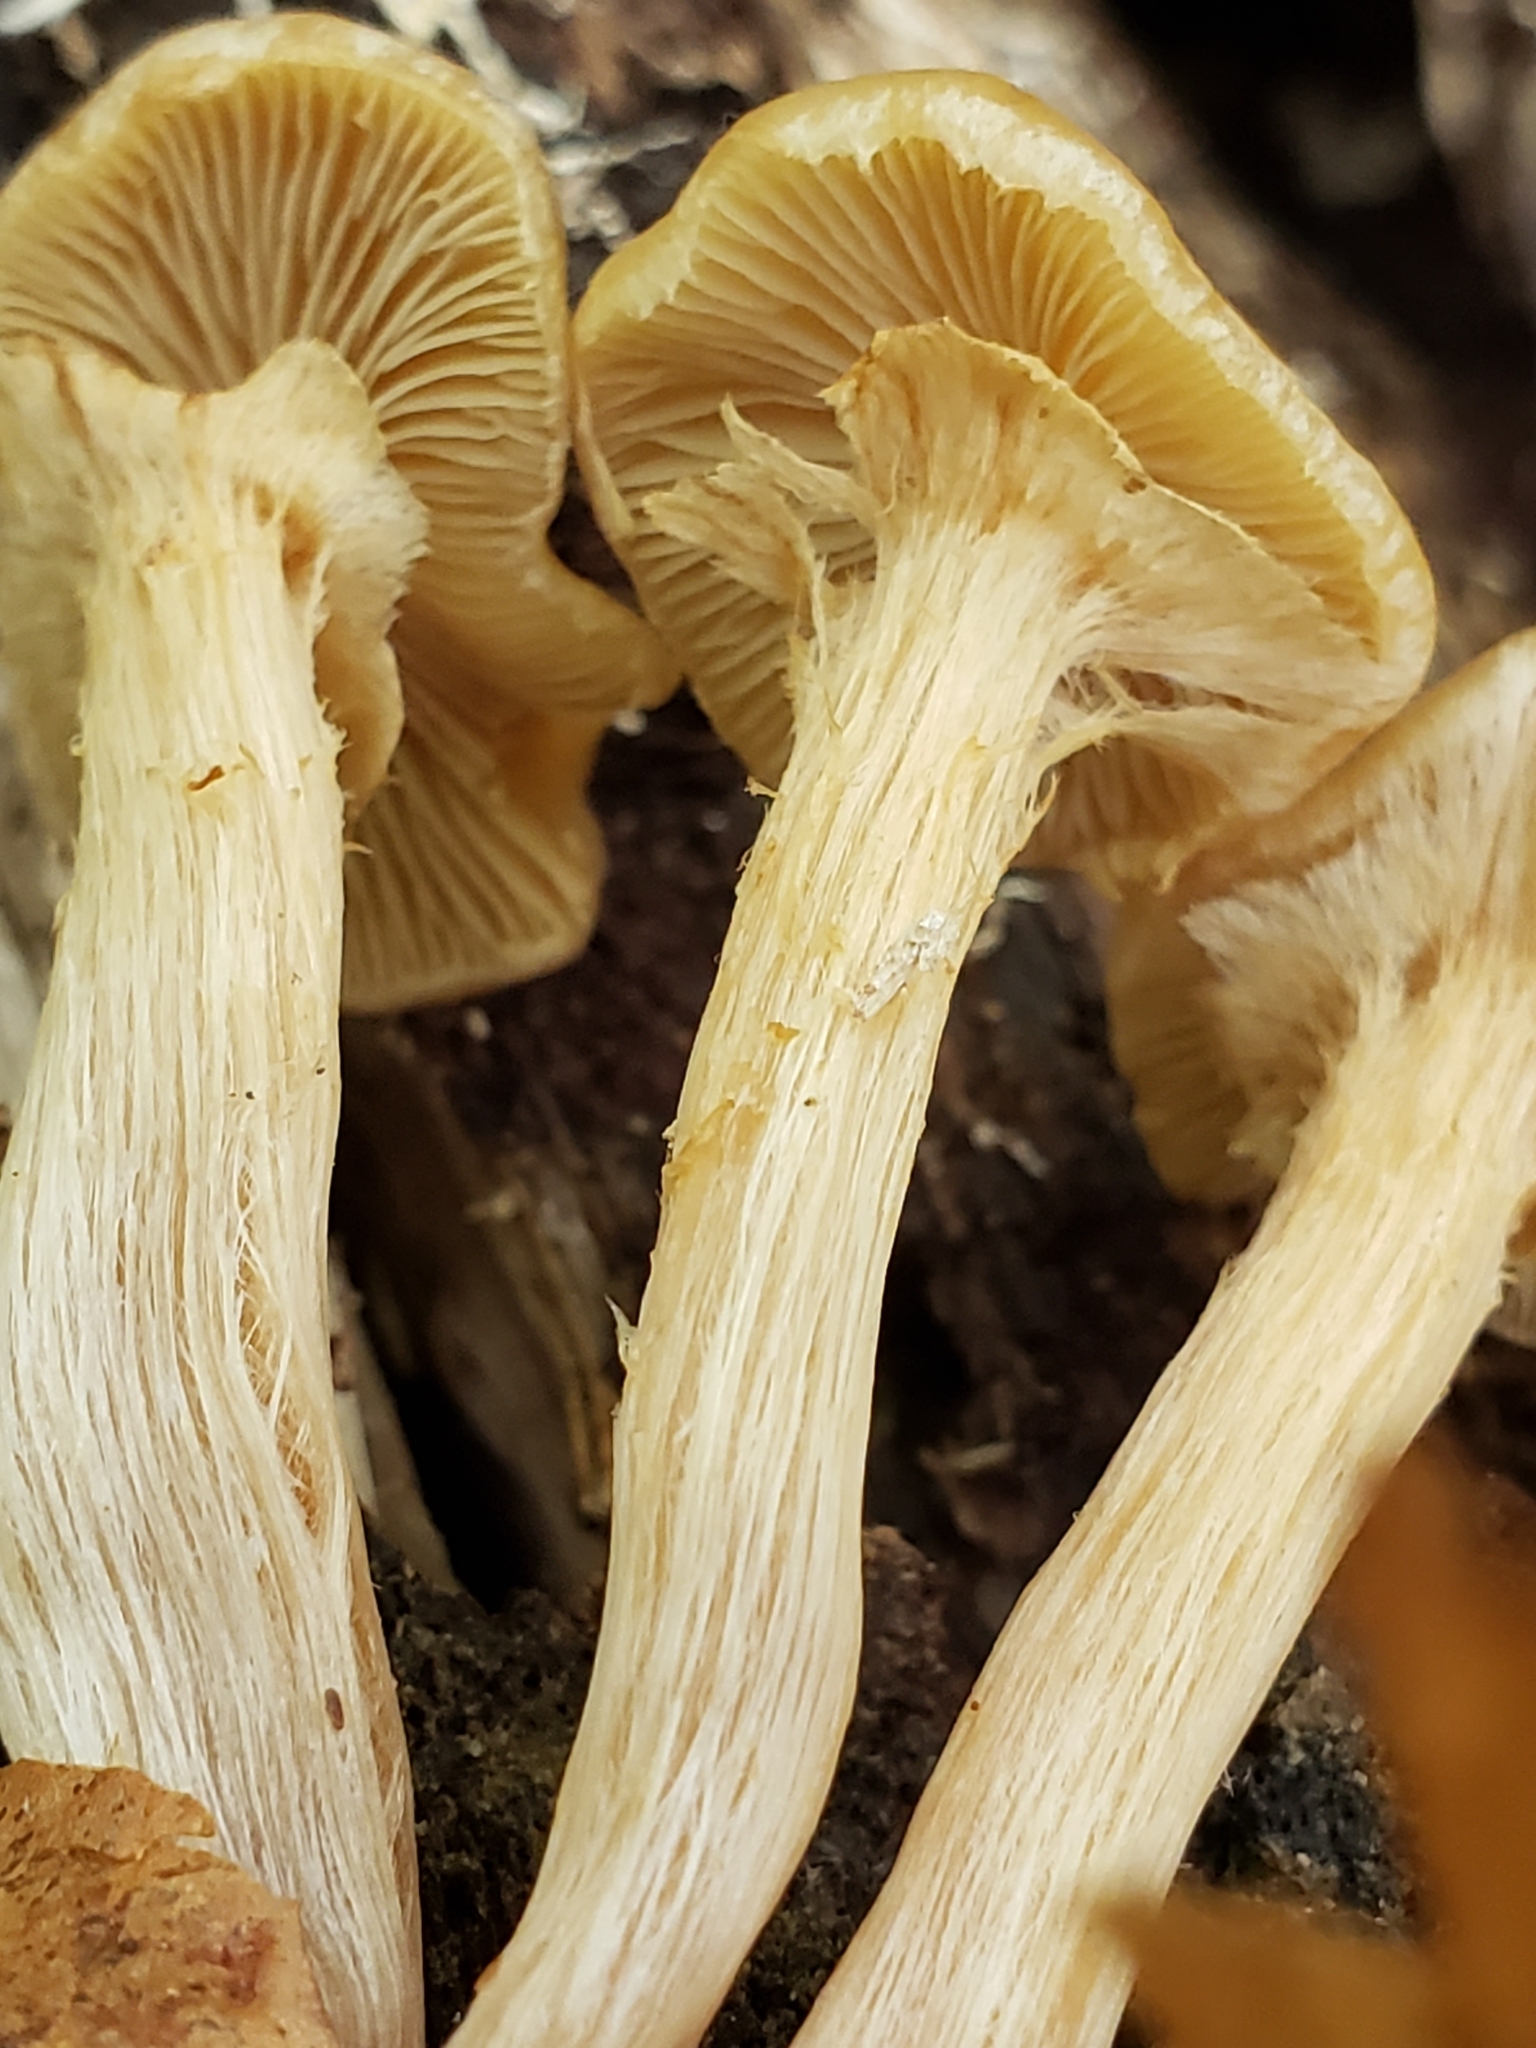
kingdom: Fungi
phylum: Basidiomycota
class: Agaricomycetes
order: Agaricales
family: Strophariaceae
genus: Kuehneromyces
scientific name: Kuehneromyces marginellus
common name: Sheathed woodtuft
